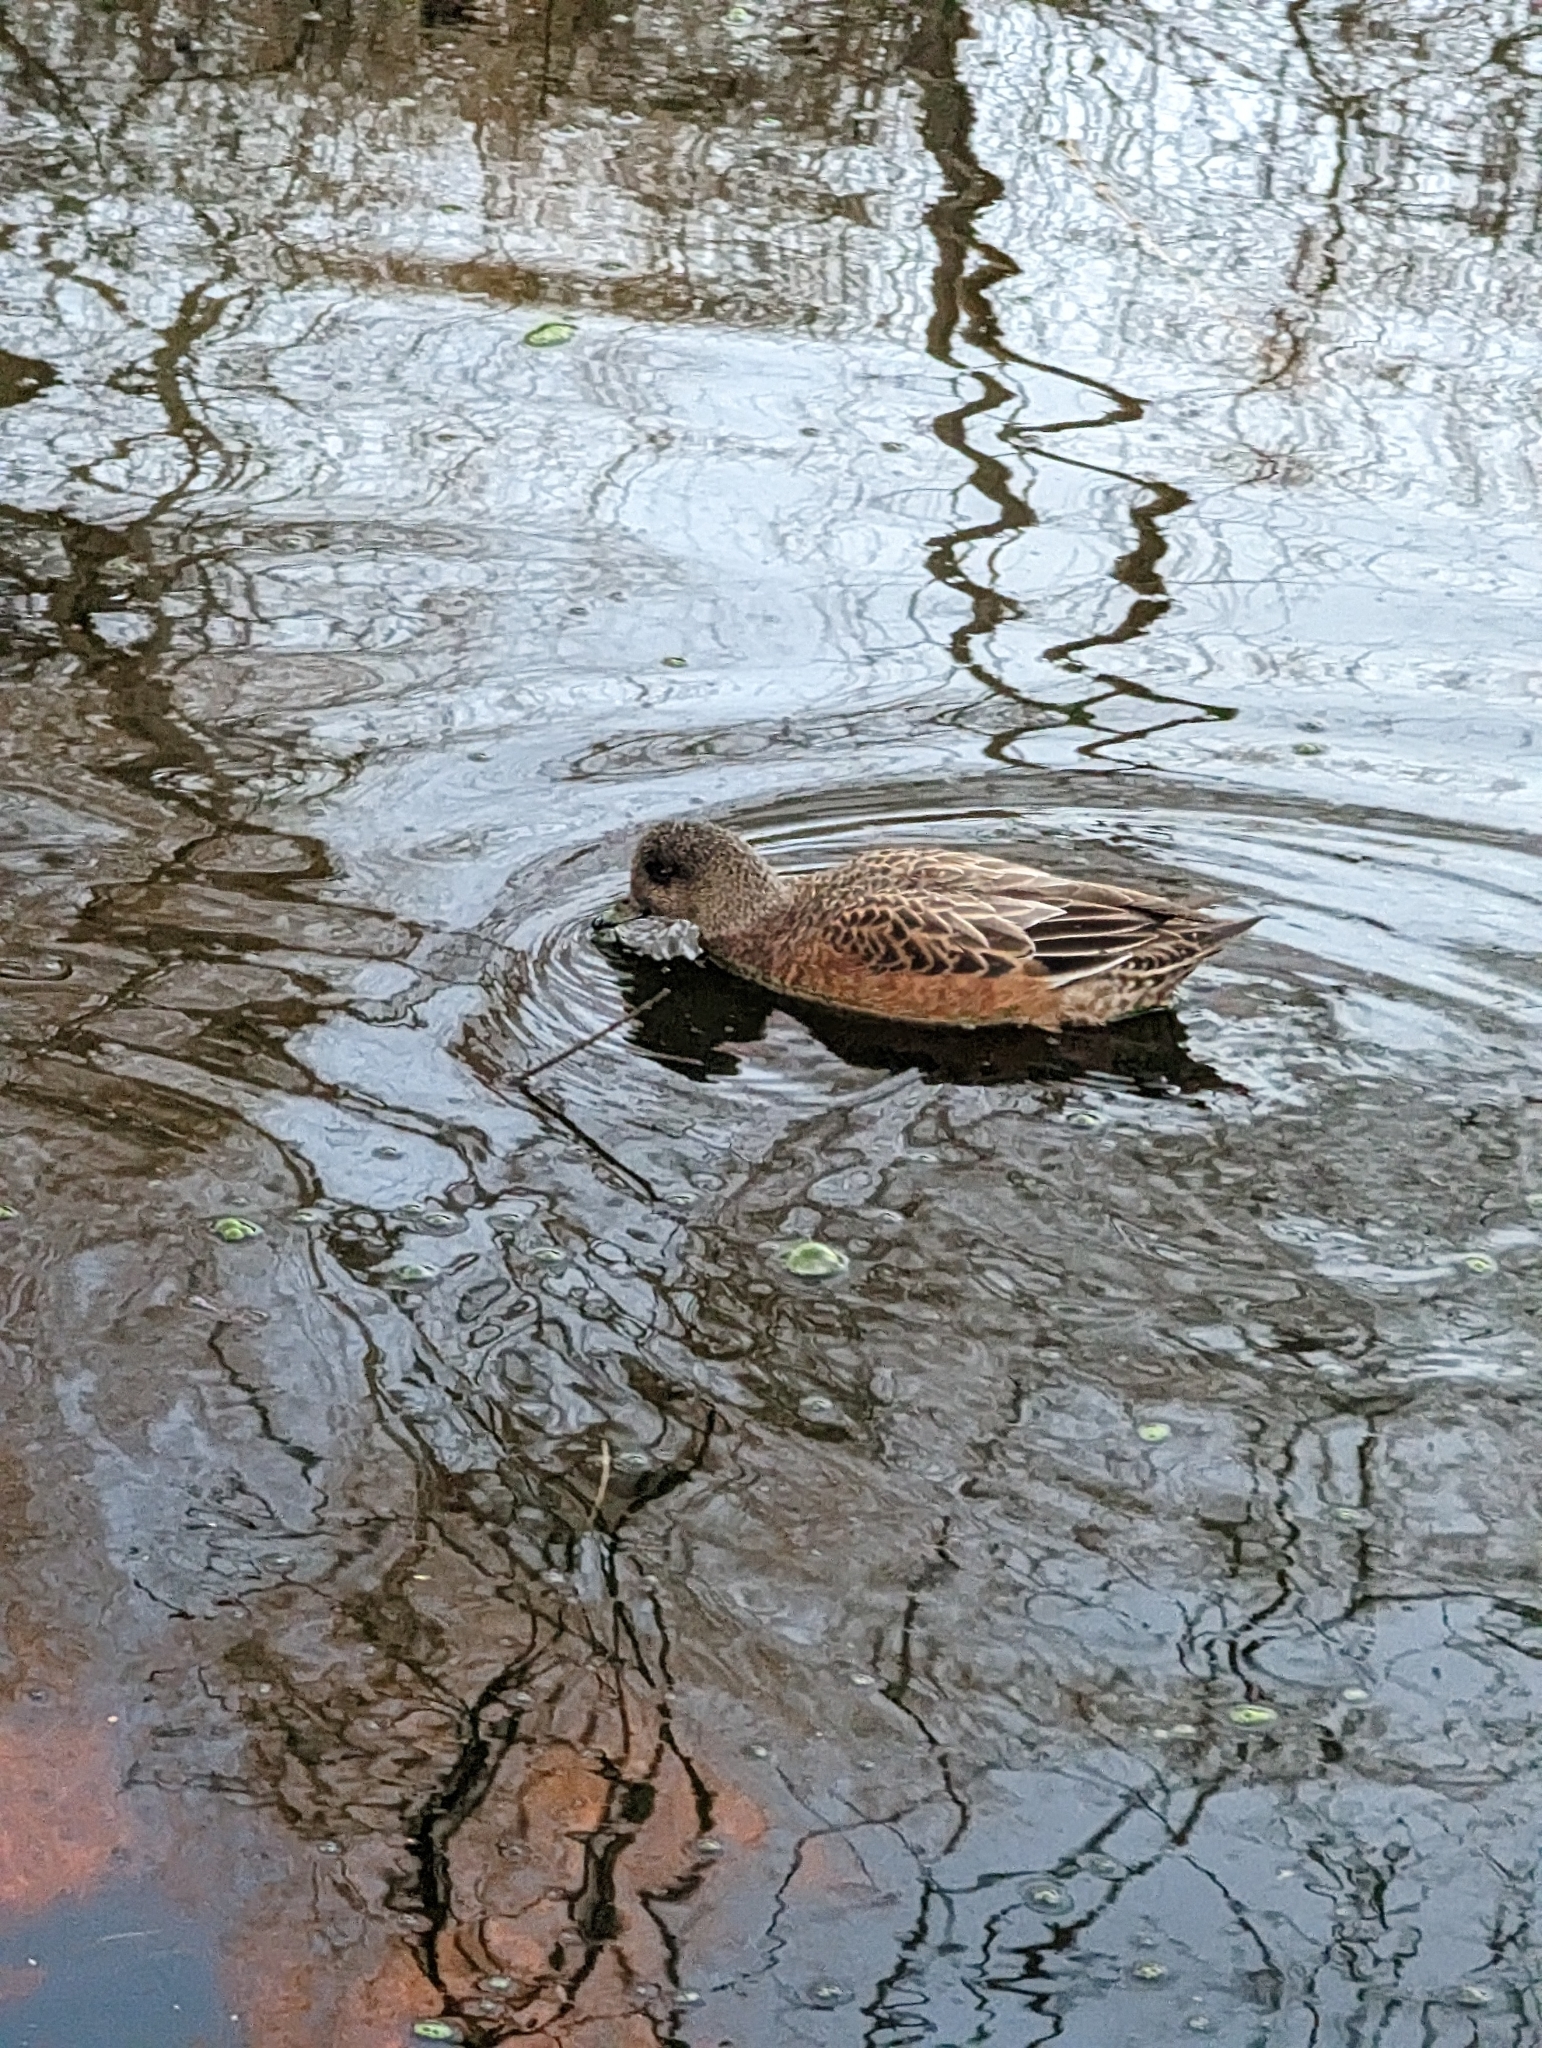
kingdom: Animalia
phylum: Chordata
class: Aves
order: Anseriformes
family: Anatidae
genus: Mareca
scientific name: Mareca americana
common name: American wigeon
